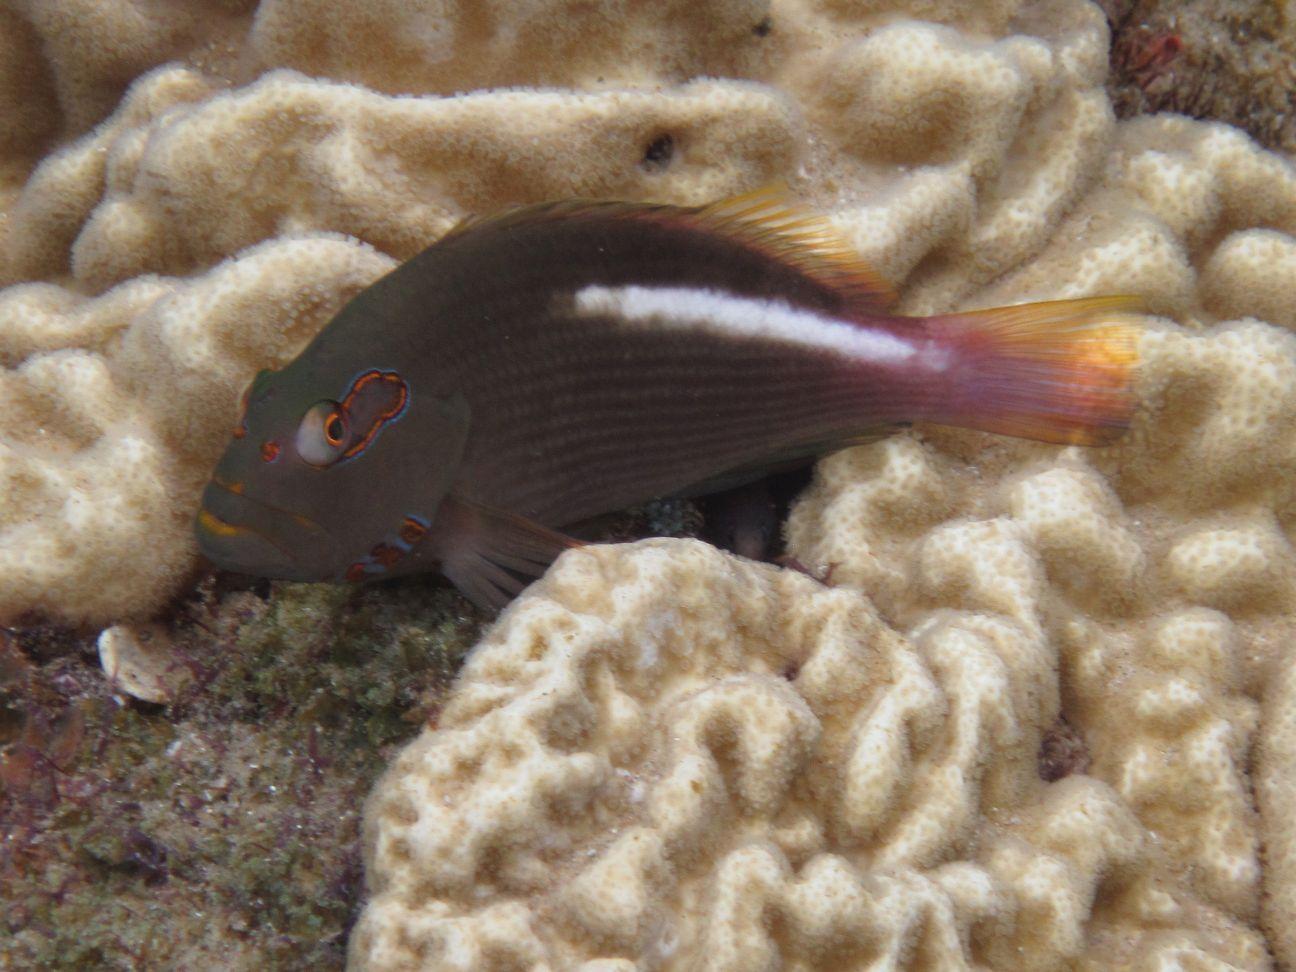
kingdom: Animalia
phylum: Chordata
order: Perciformes
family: Cirrhitidae
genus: Paracirrhites
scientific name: Paracirrhites arcatus
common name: Arc-eye hawkfish
